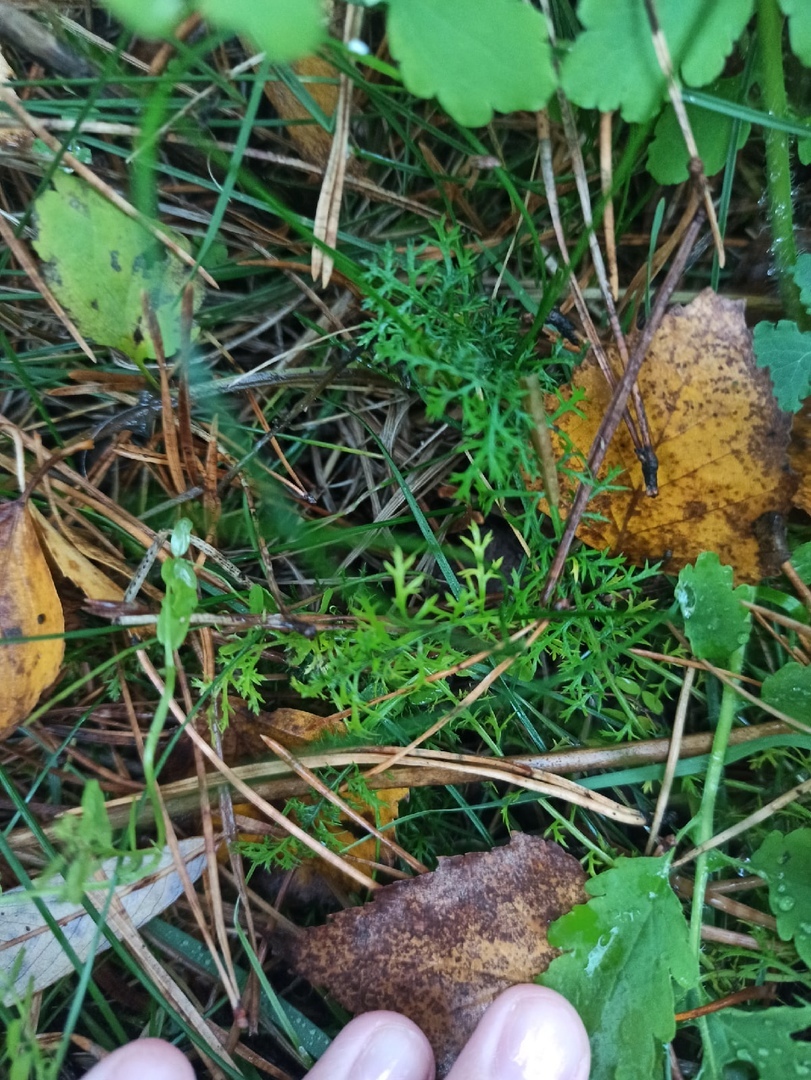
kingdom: Plantae
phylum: Tracheophyta
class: Magnoliopsida
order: Asterales
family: Asteraceae
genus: Achillea
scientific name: Achillea millefolium
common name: Yarrow
